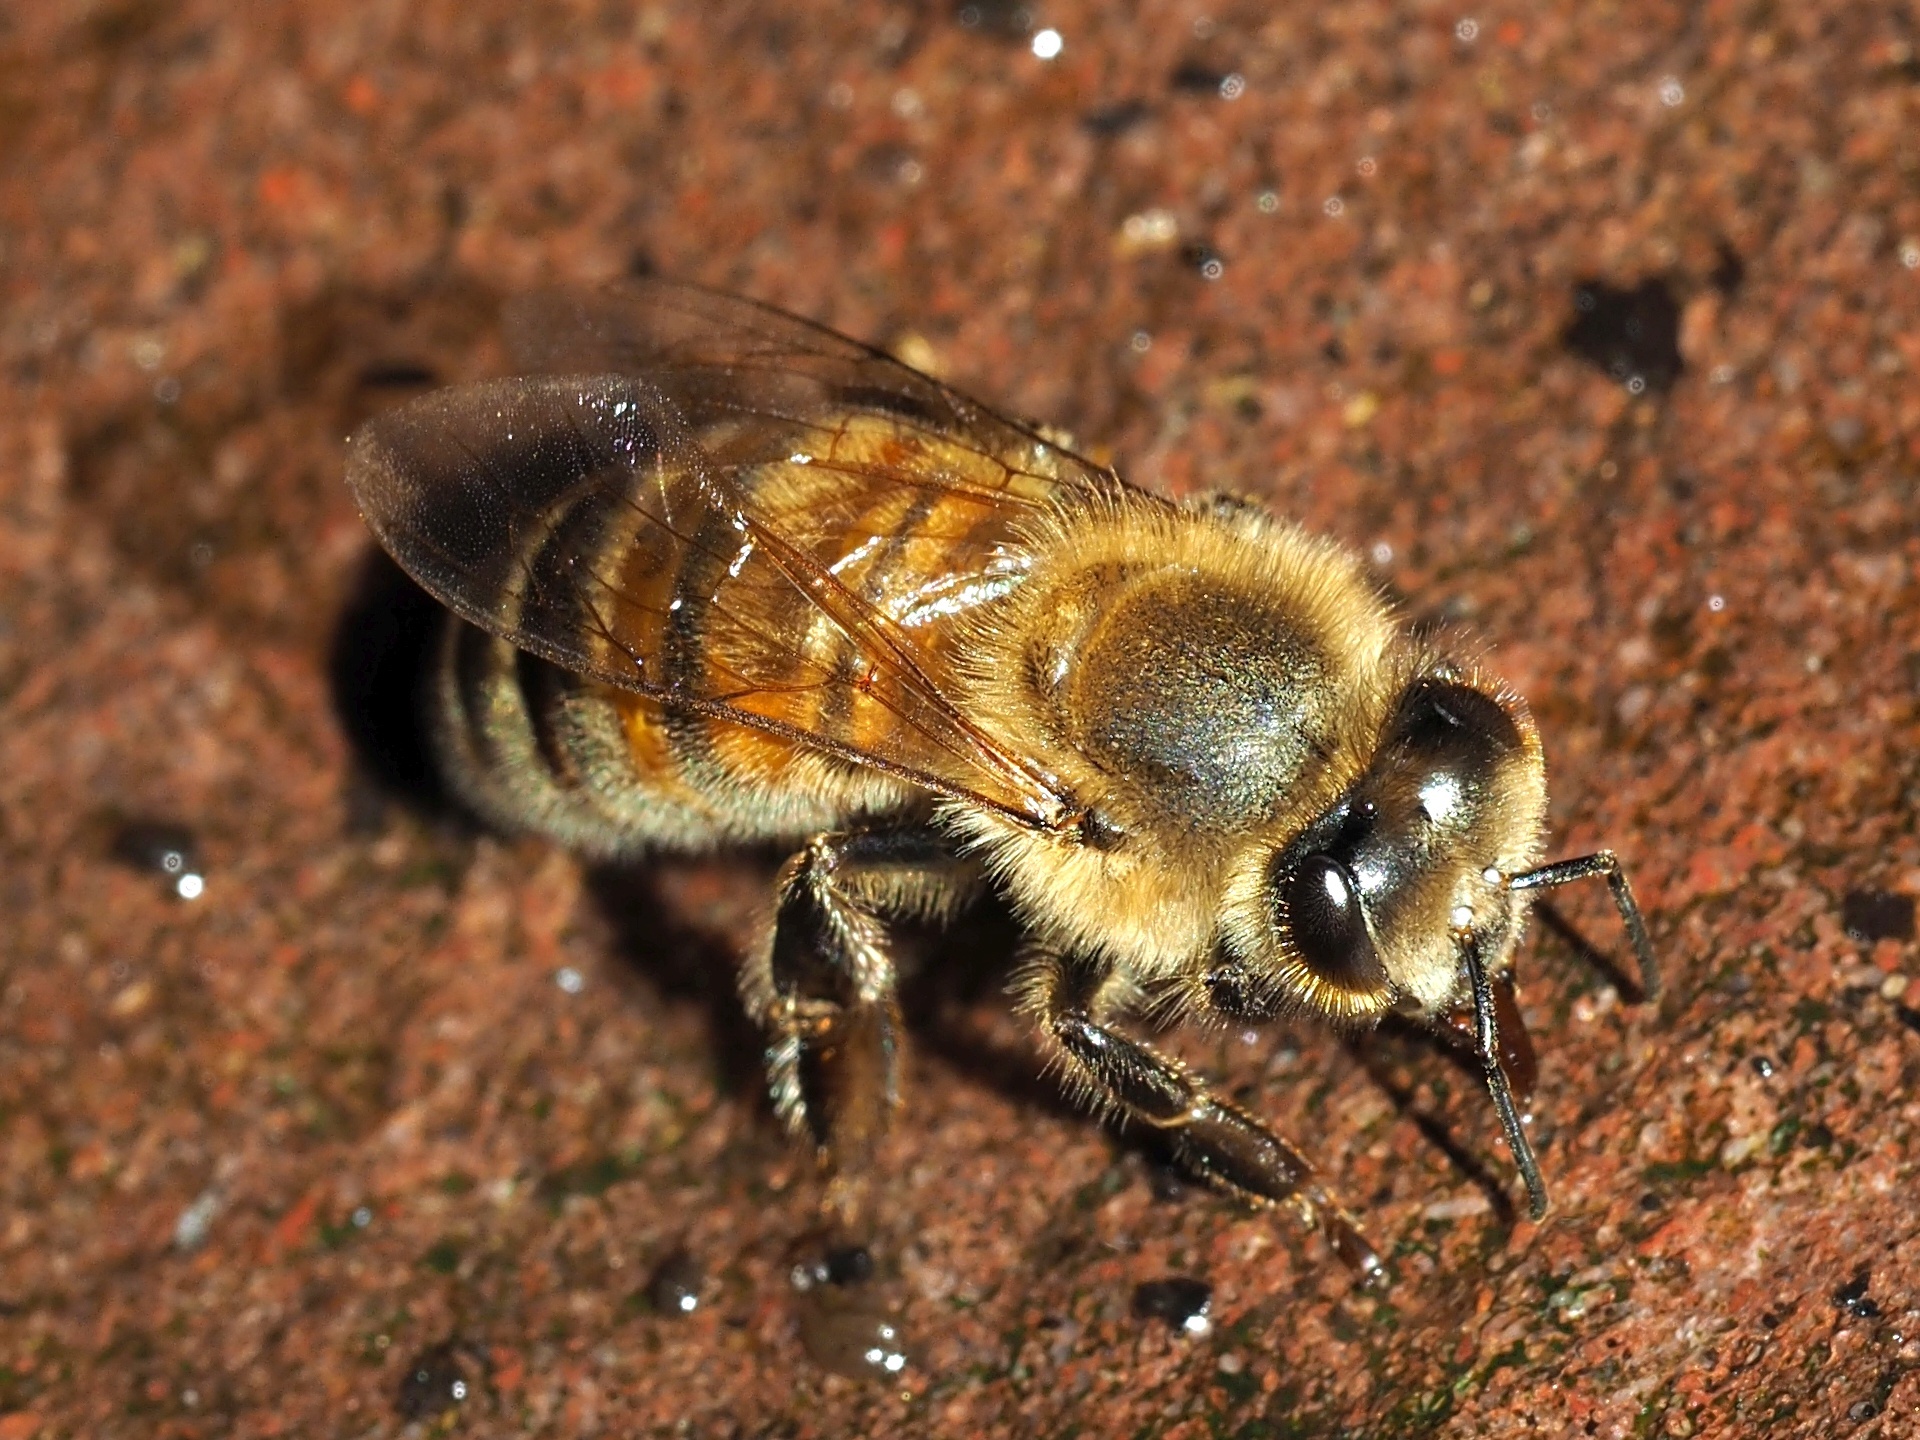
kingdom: Animalia
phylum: Arthropoda
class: Insecta
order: Hymenoptera
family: Apidae
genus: Apis
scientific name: Apis mellifera
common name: Honey bee
